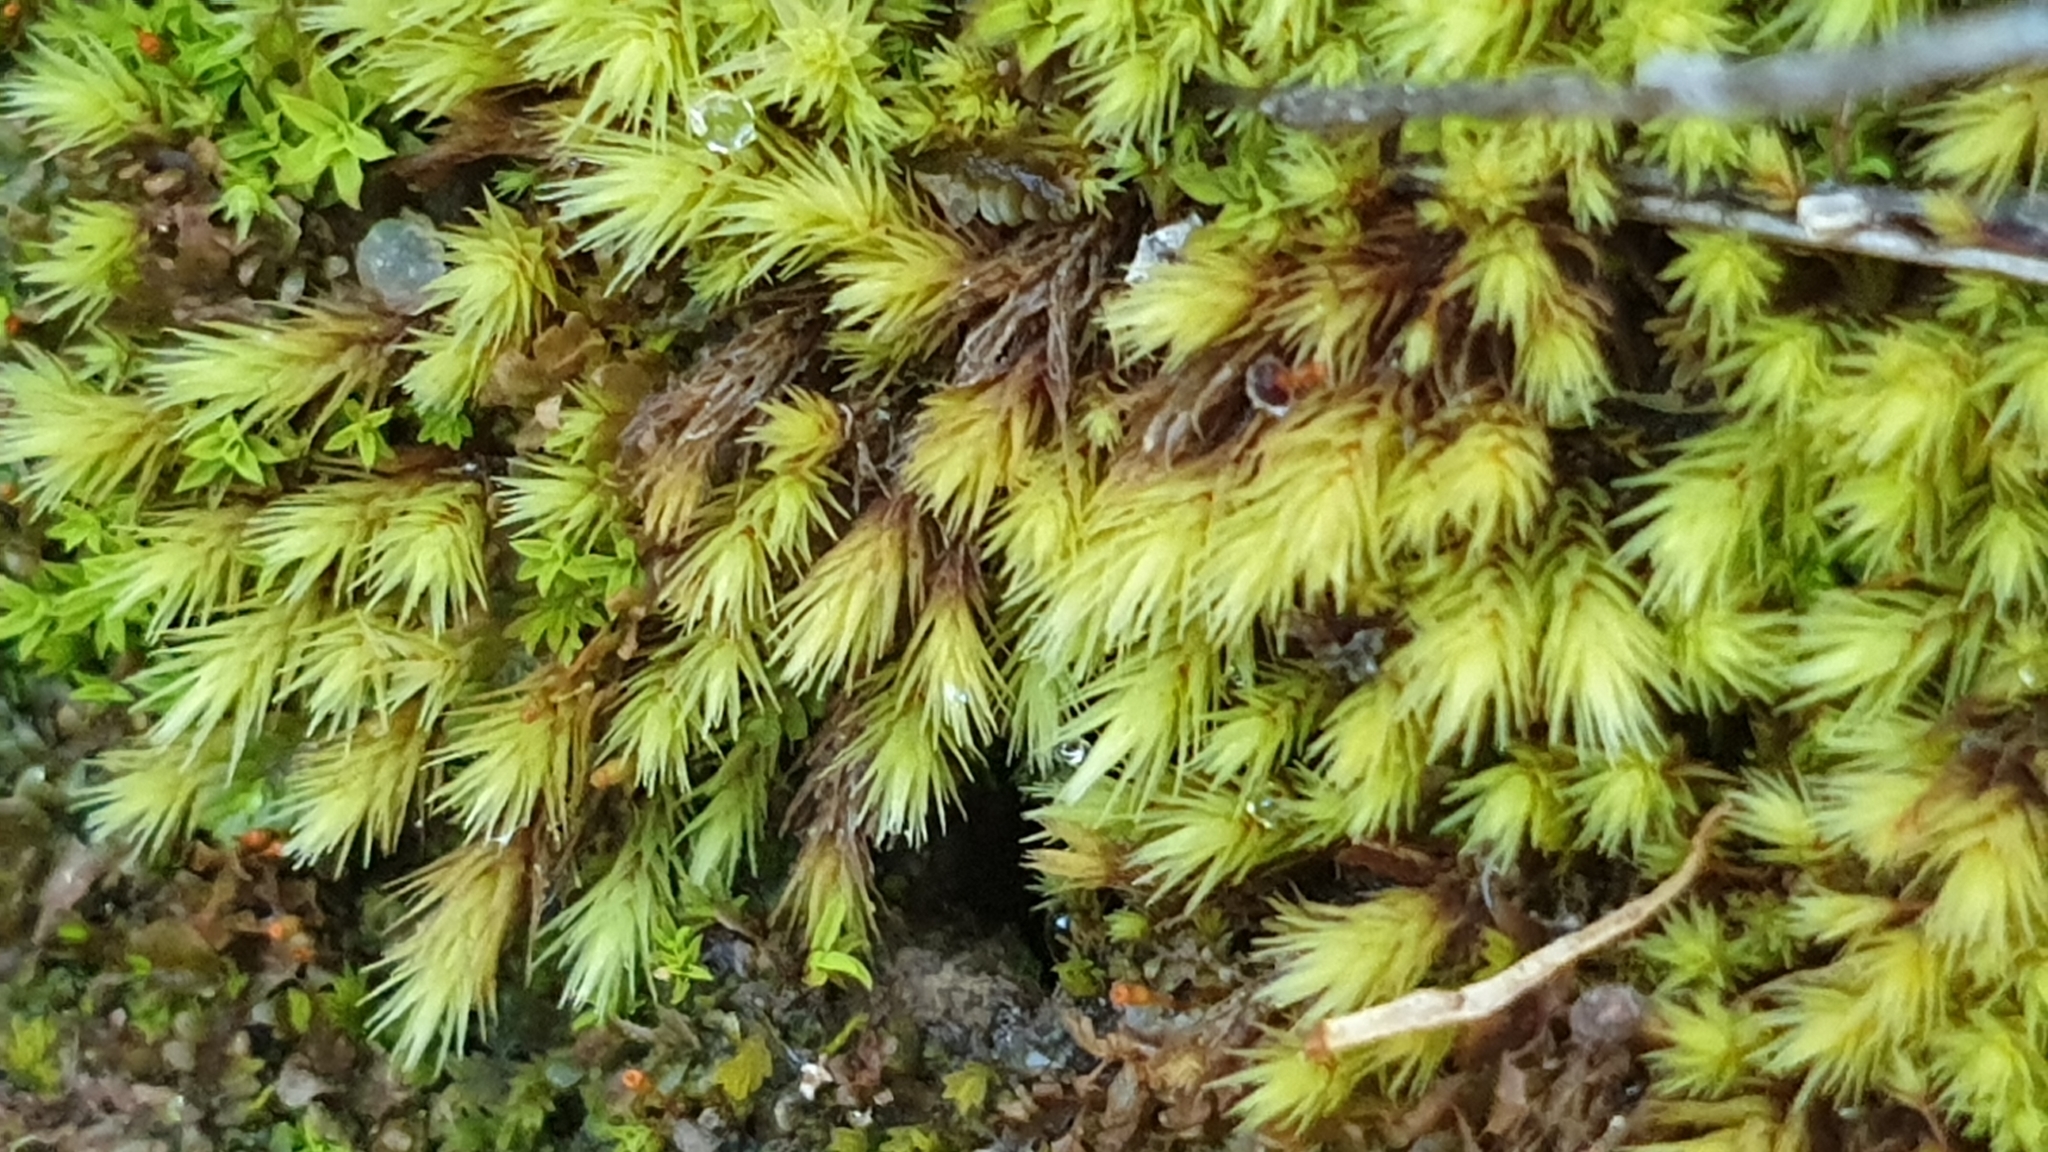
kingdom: Plantae
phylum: Bryophyta
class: Bryopsida
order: Bartramiales
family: Bartramiaceae
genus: Breutelia
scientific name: Breutelia affinis
